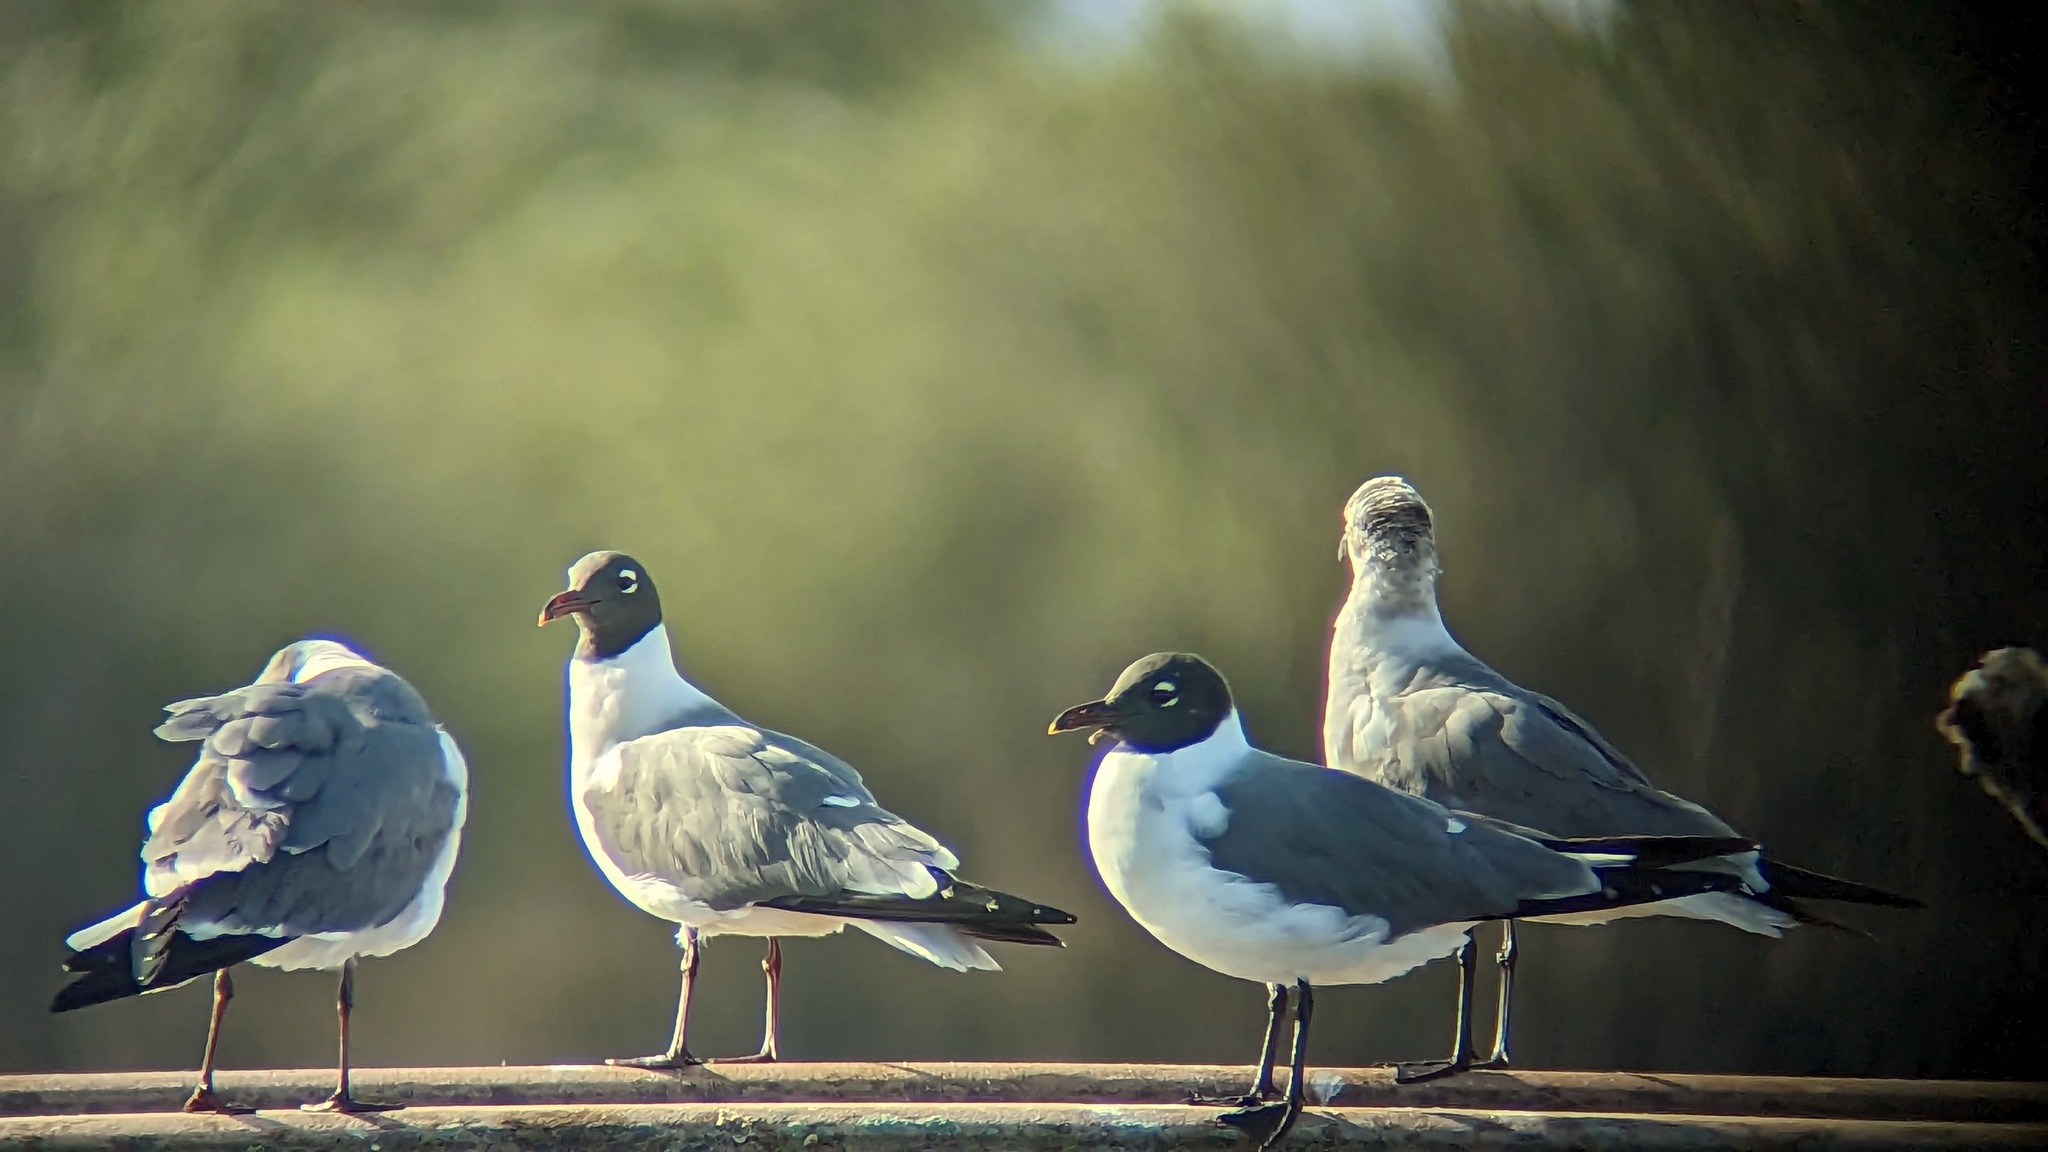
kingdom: Animalia
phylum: Chordata
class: Aves
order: Charadriiformes
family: Laridae
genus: Leucophaeus
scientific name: Leucophaeus atricilla
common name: Laughing gull
